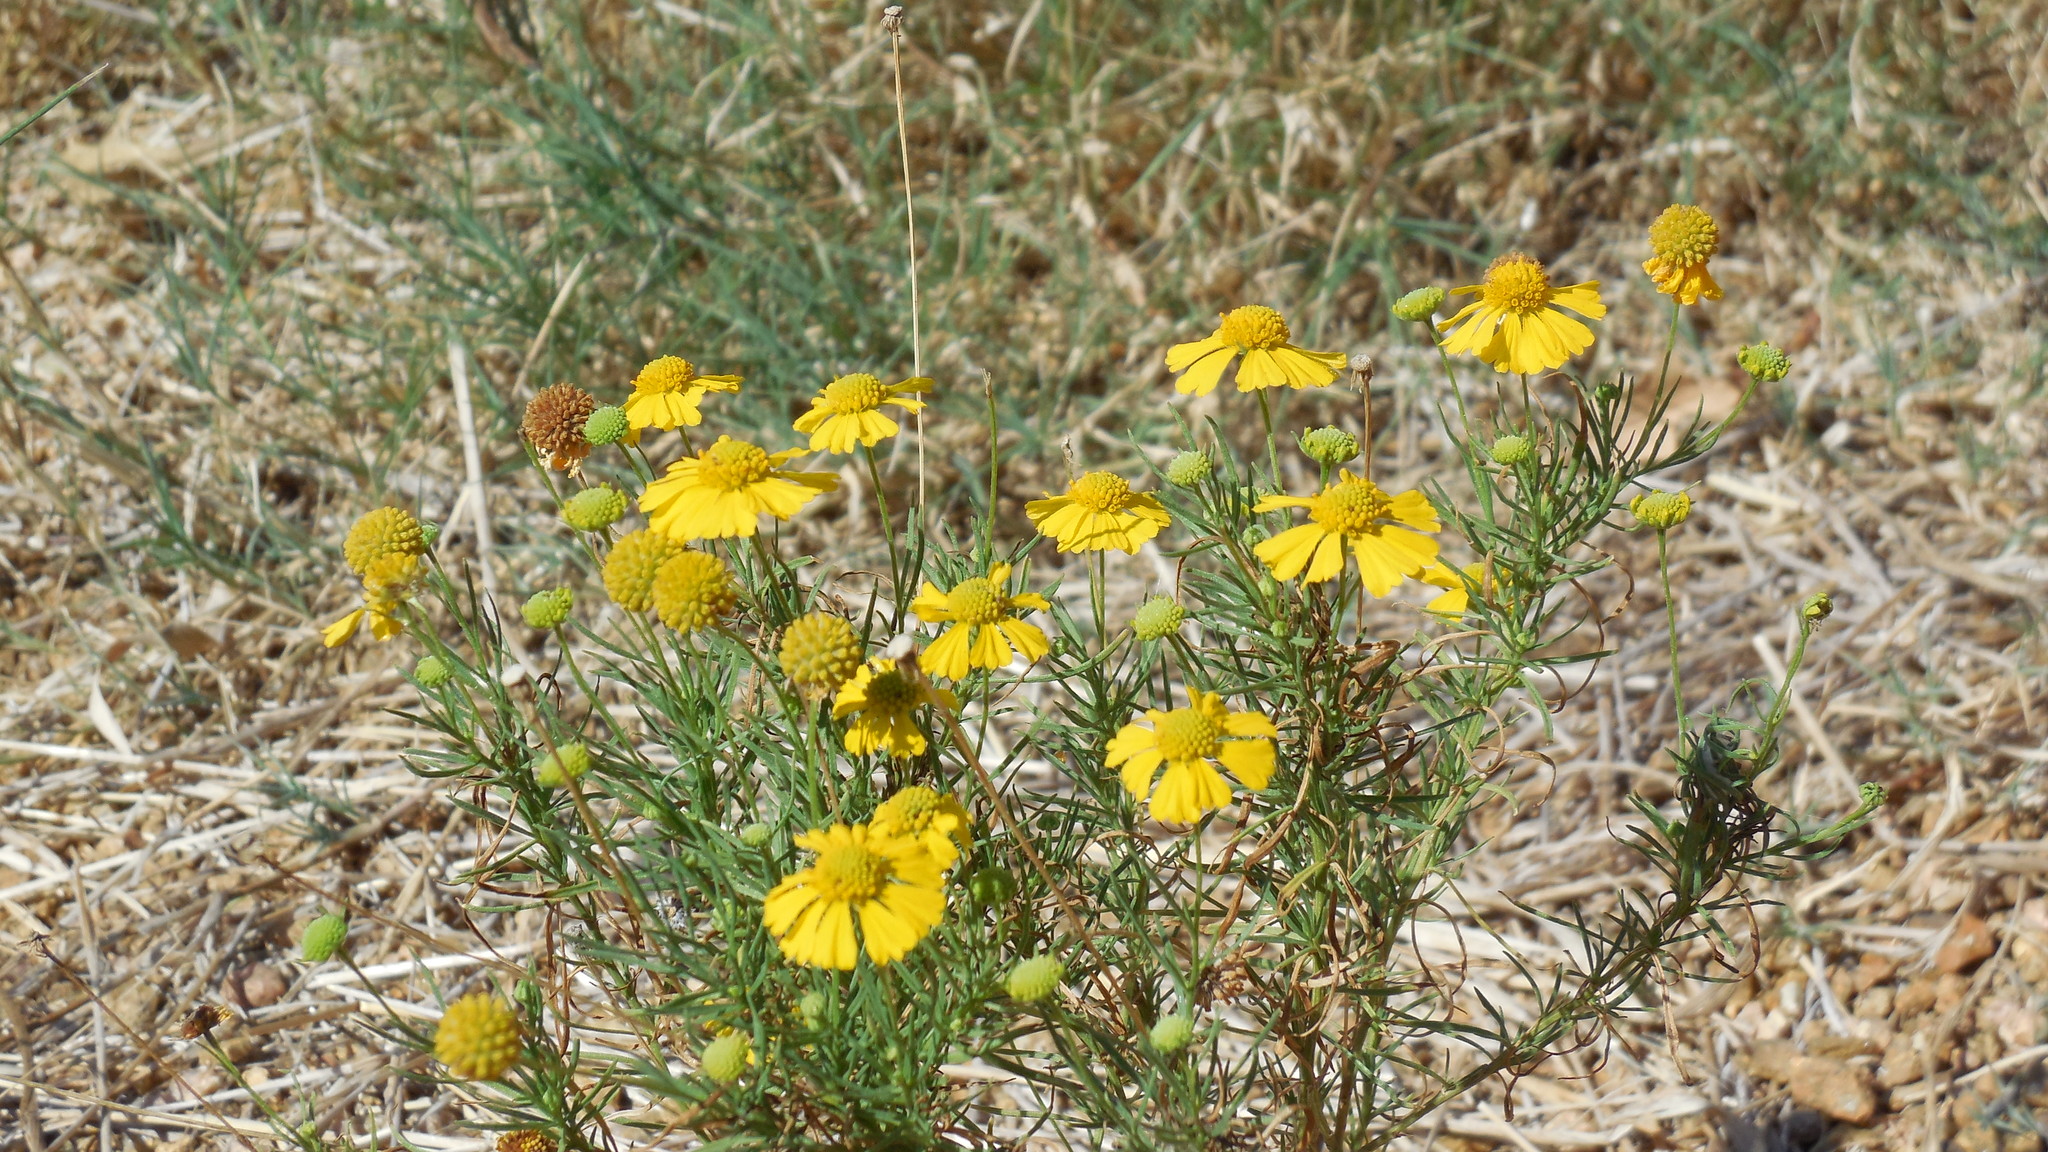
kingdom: Plantae
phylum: Tracheophyta
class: Magnoliopsida
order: Asterales
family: Asteraceae
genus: Helenium
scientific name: Helenium amarum
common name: Bitter sneezeweed
